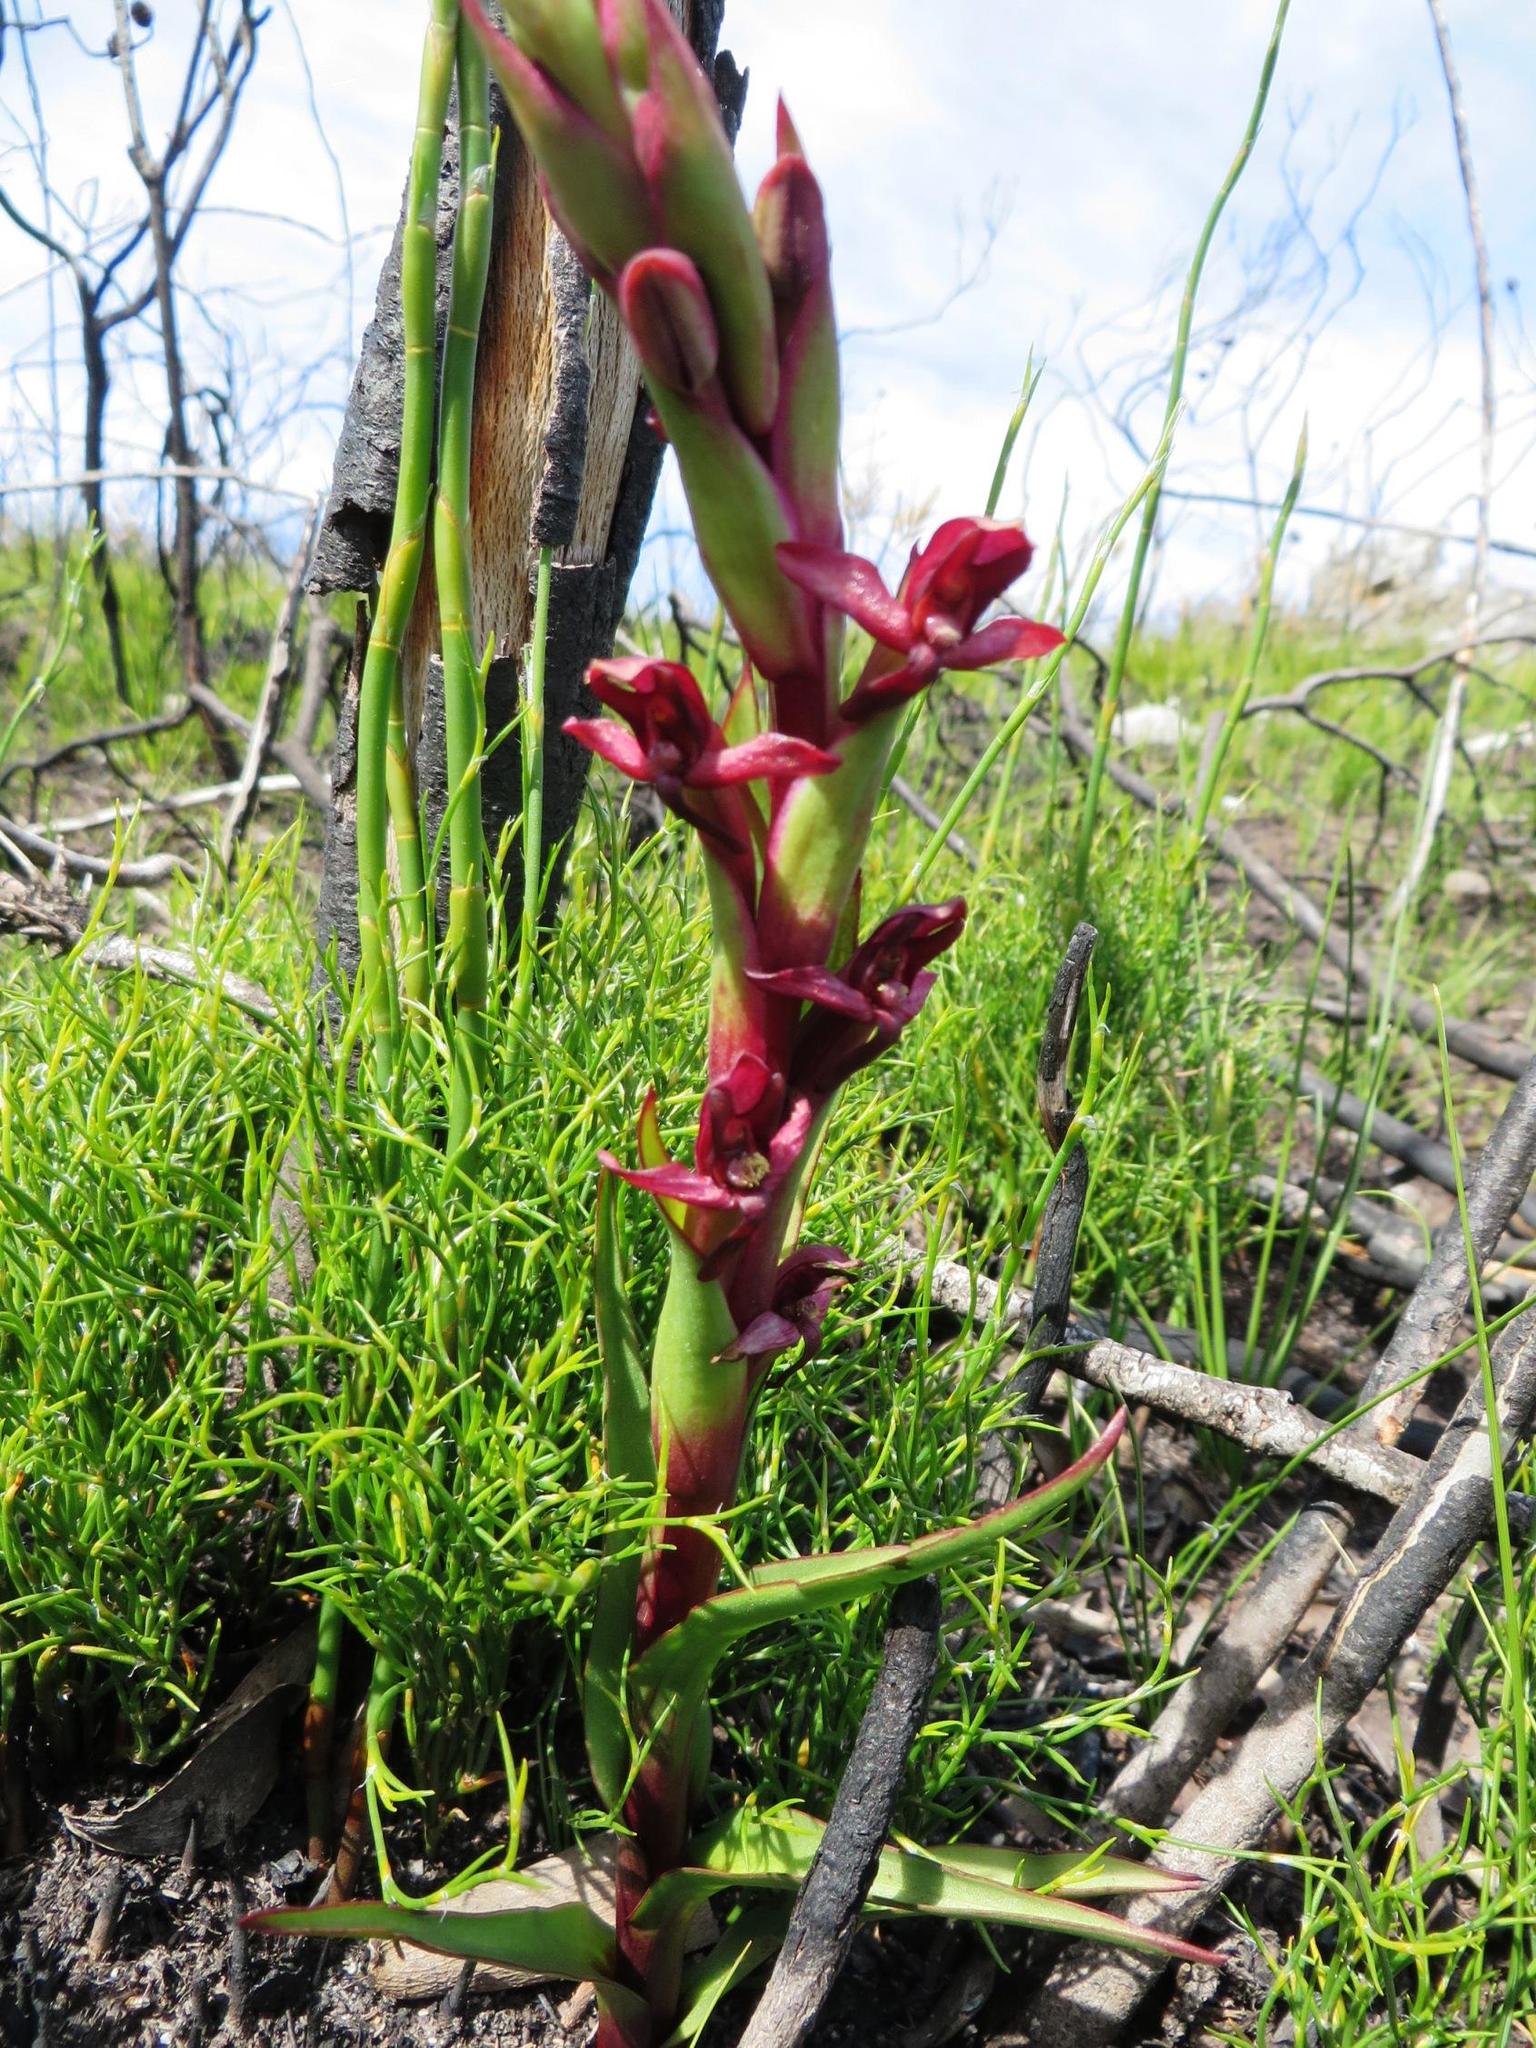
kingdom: Plantae
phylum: Tracheophyta
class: Liliopsida
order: Asparagales
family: Orchidaceae
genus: Disa
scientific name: Disa ophrydea
